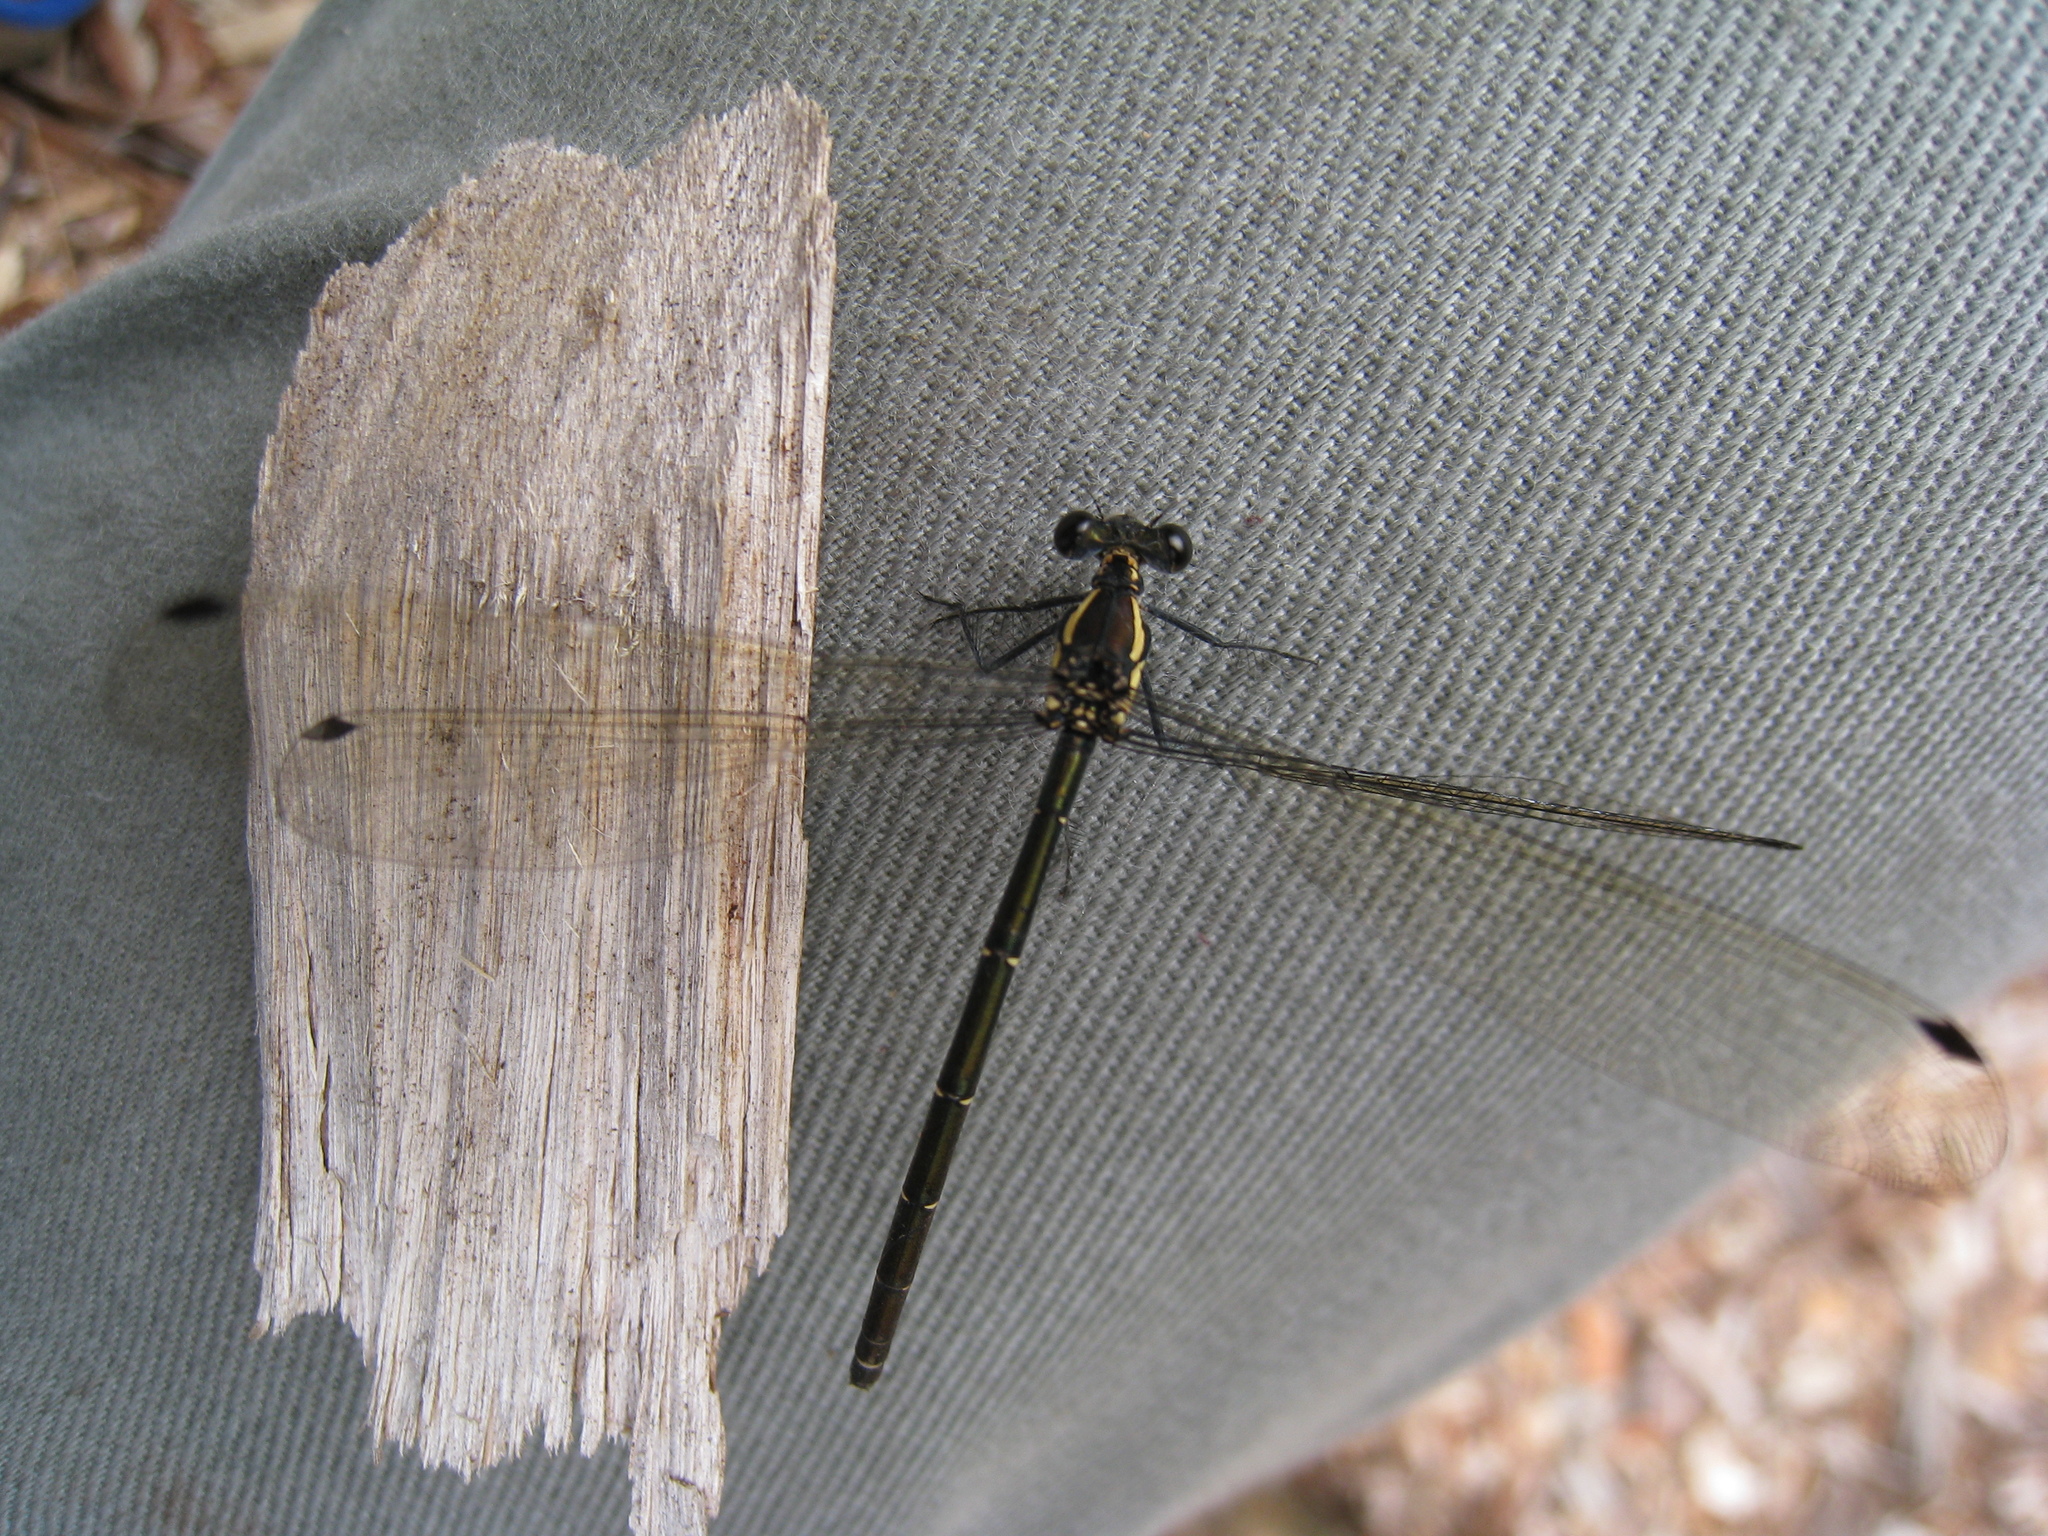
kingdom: Animalia
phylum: Arthropoda
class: Insecta
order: Odonata
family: Argiolestidae
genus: Austroargiolestes
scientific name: Austroargiolestes icteromelas
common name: Common flatwing
